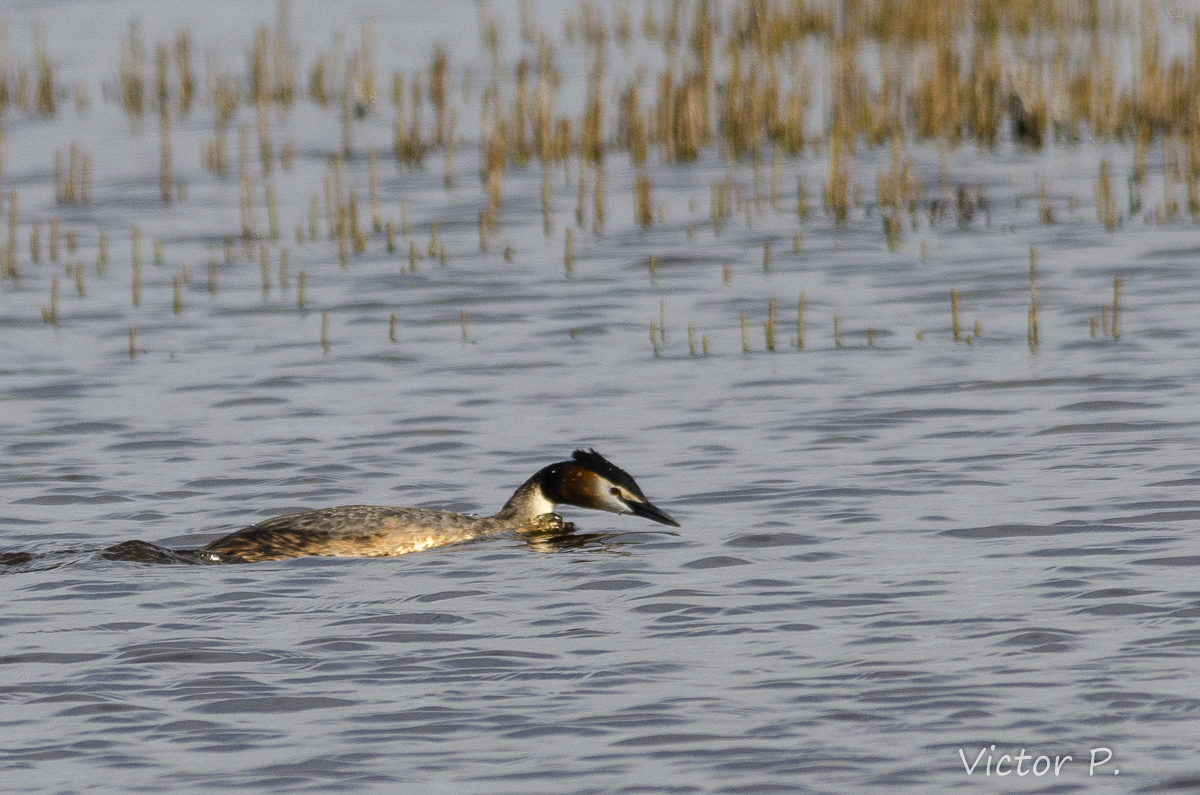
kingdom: Animalia
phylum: Chordata
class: Aves
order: Podicipediformes
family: Podicipedidae
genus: Podiceps
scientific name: Podiceps cristatus
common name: Great crested grebe
